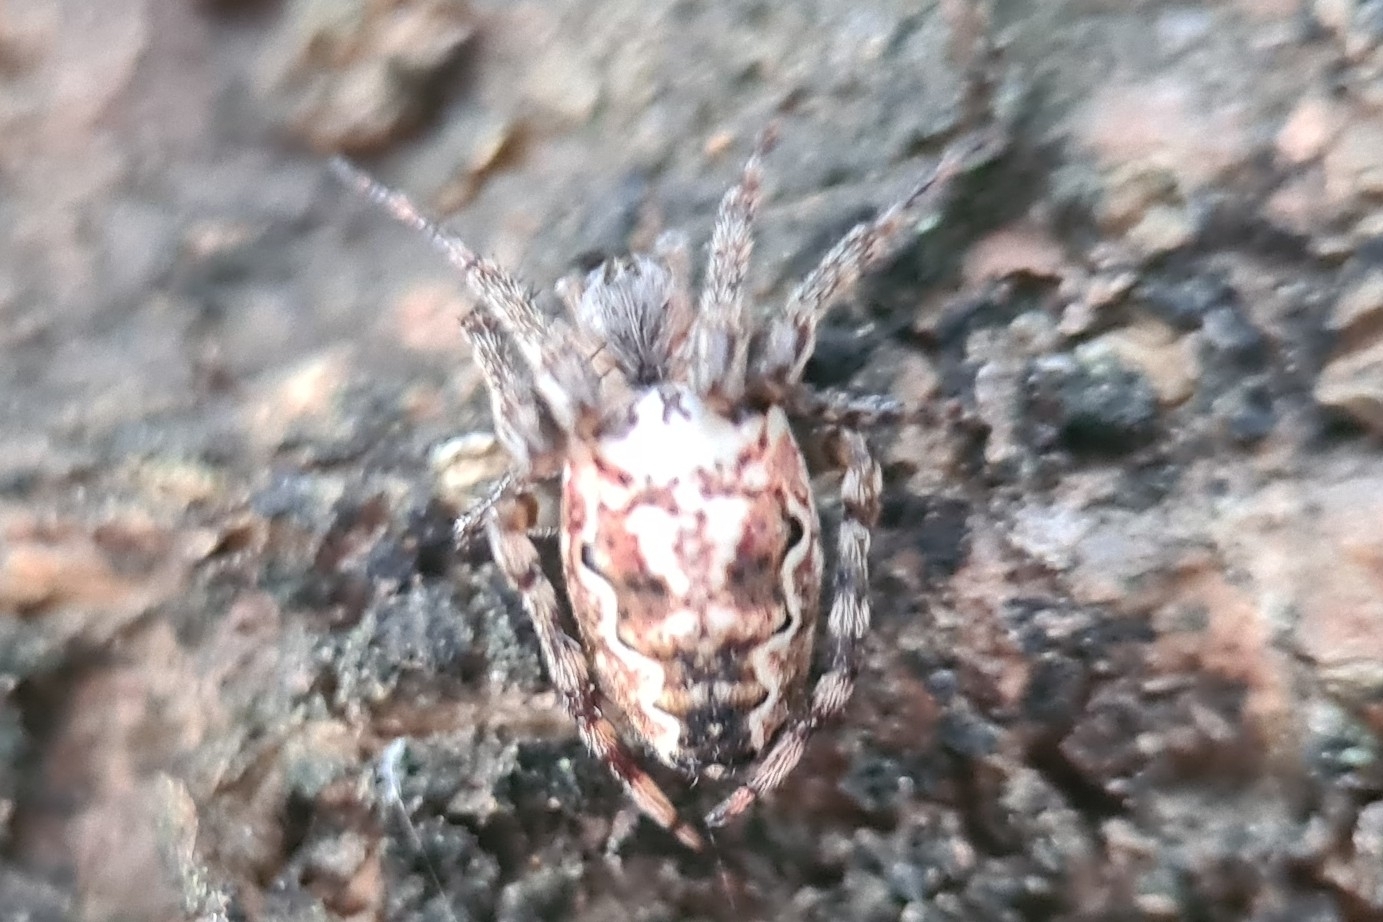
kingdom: Animalia
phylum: Arthropoda
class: Arachnida
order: Araneae
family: Araneidae
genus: Plebs
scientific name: Plebs eburnus
